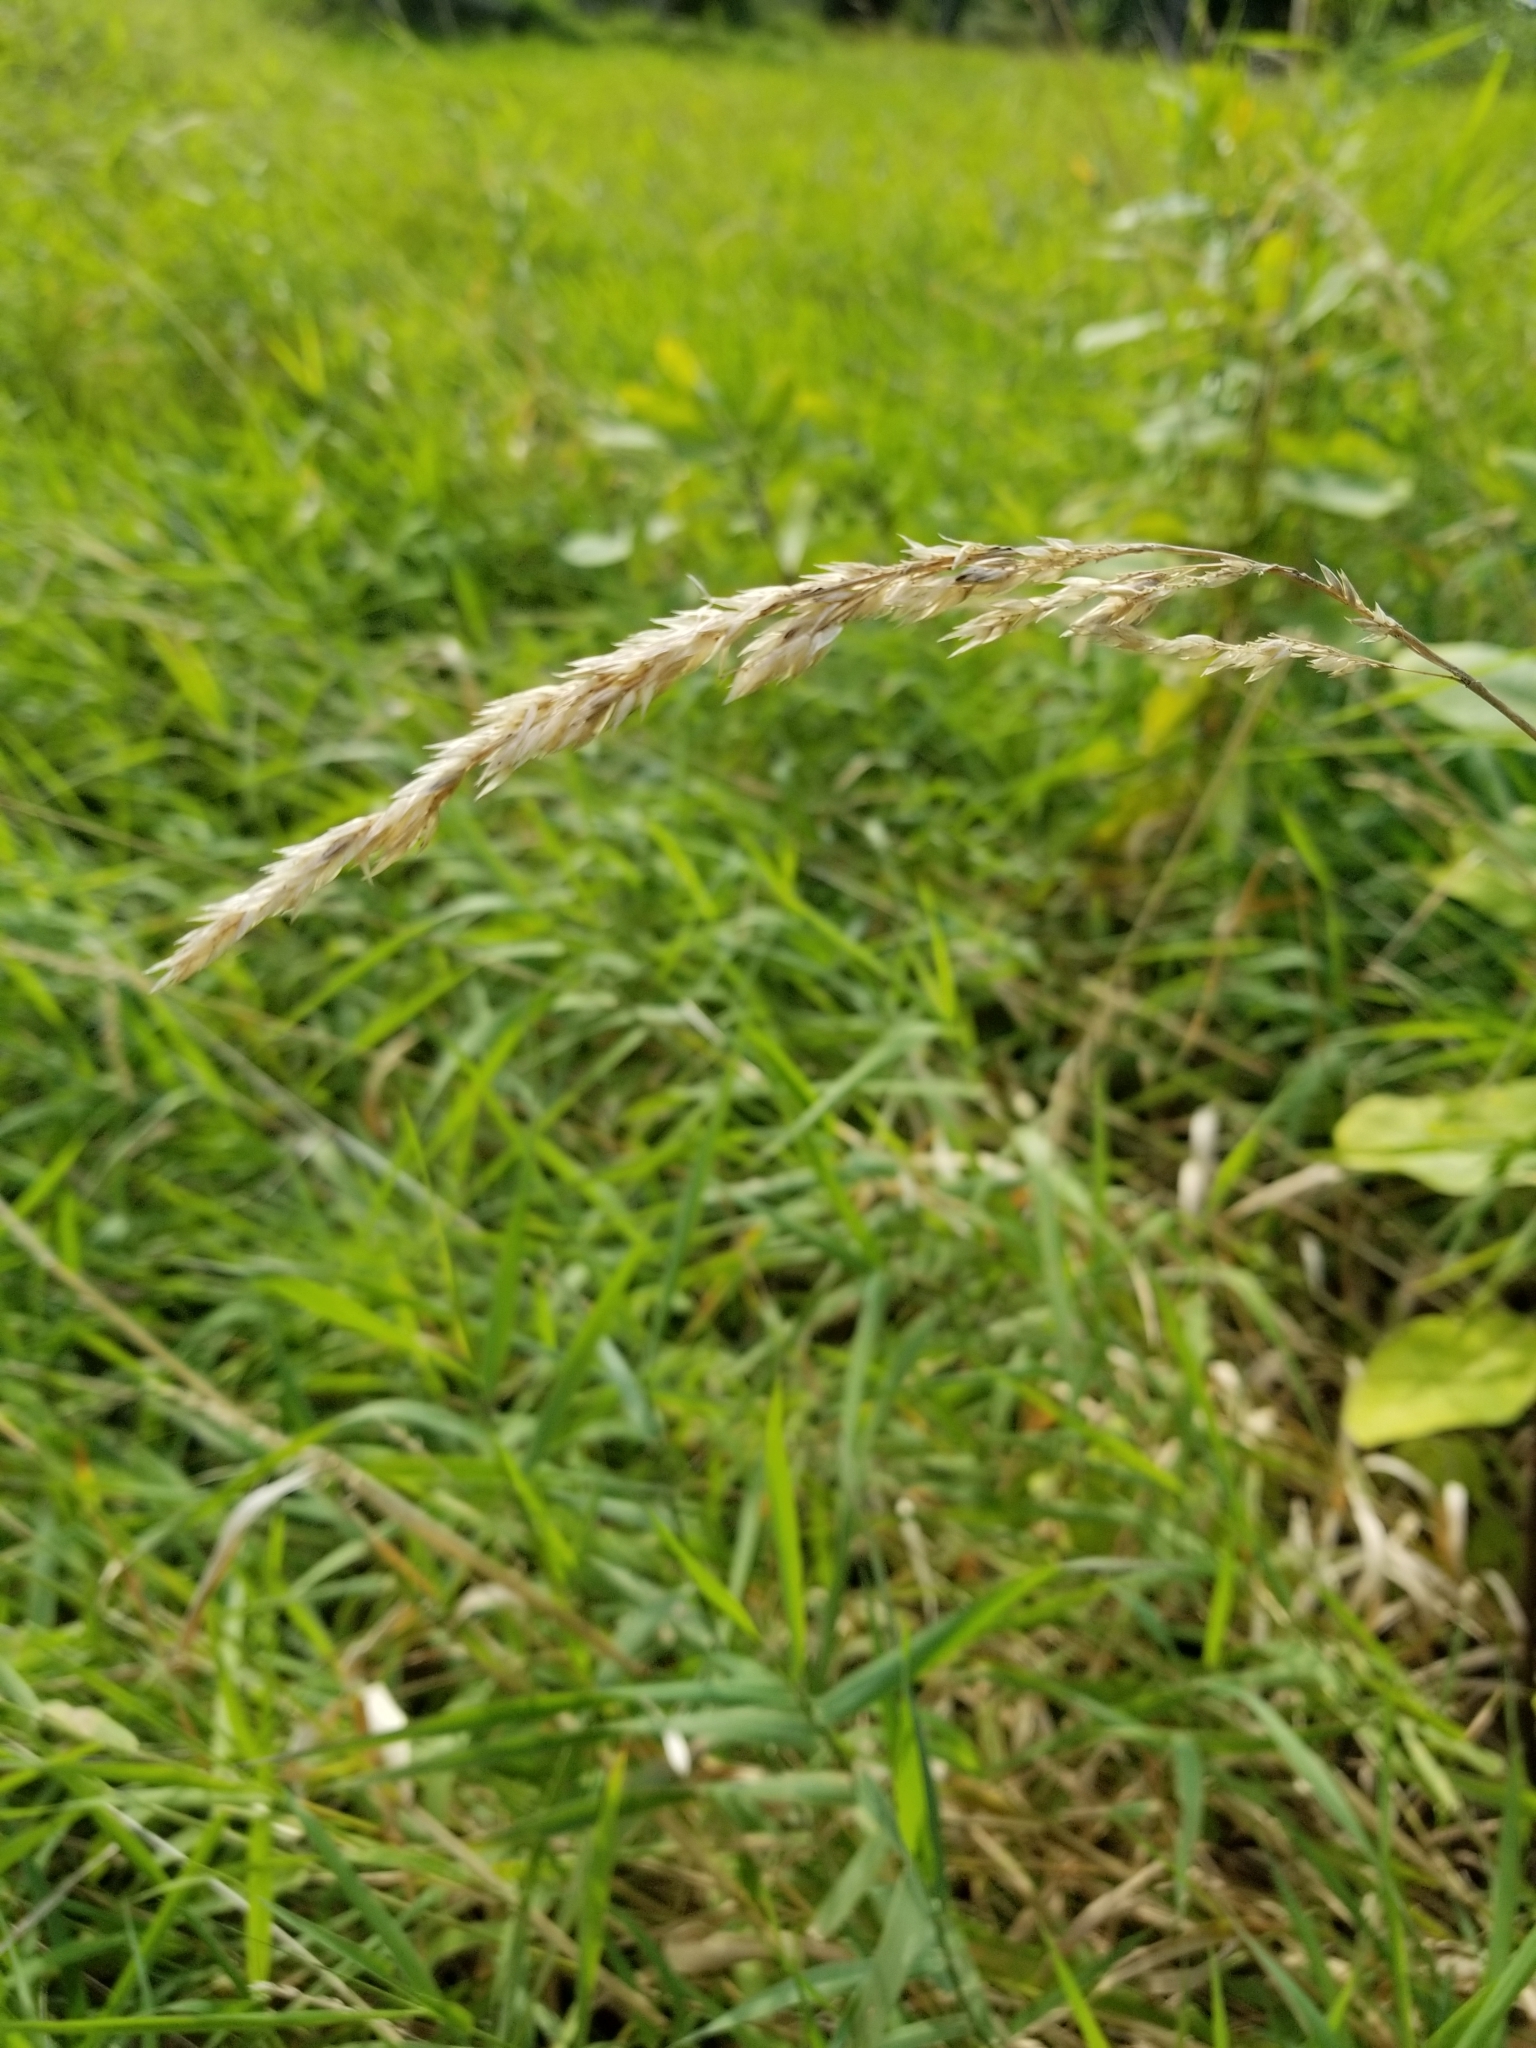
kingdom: Plantae
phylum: Tracheophyta
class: Liliopsida
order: Poales
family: Poaceae
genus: Phalaris
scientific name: Phalaris arundinacea
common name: Reed canary-grass
